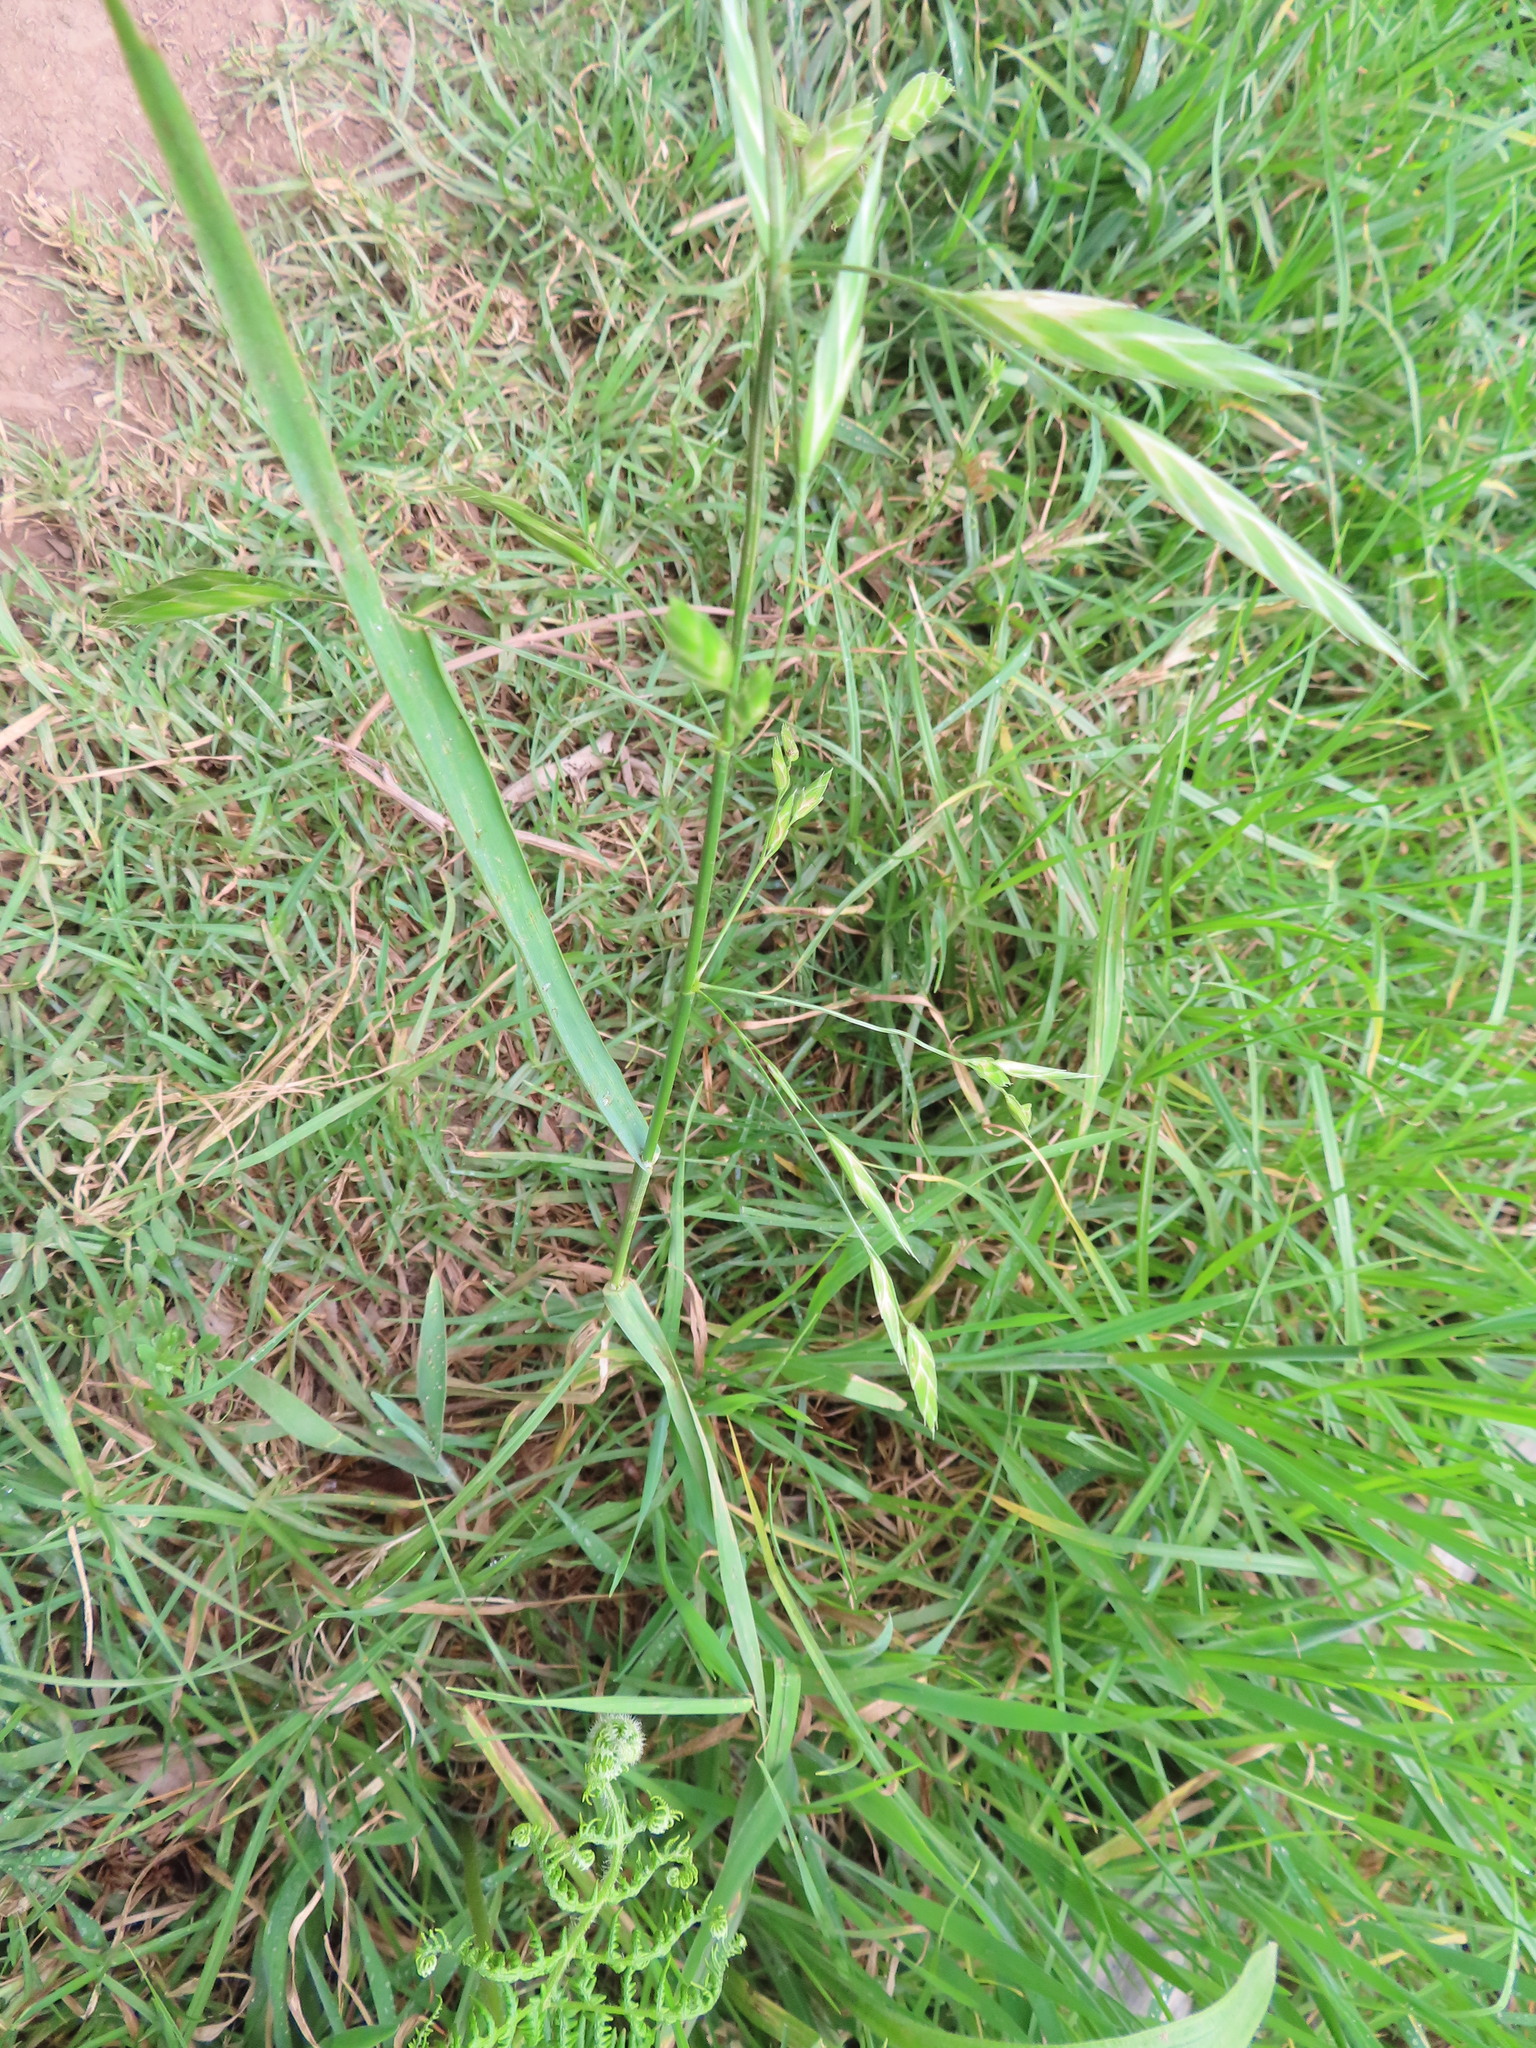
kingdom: Plantae
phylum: Tracheophyta
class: Liliopsida
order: Poales
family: Poaceae
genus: Bromus
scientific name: Bromus catharticus
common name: Rescuegrass
